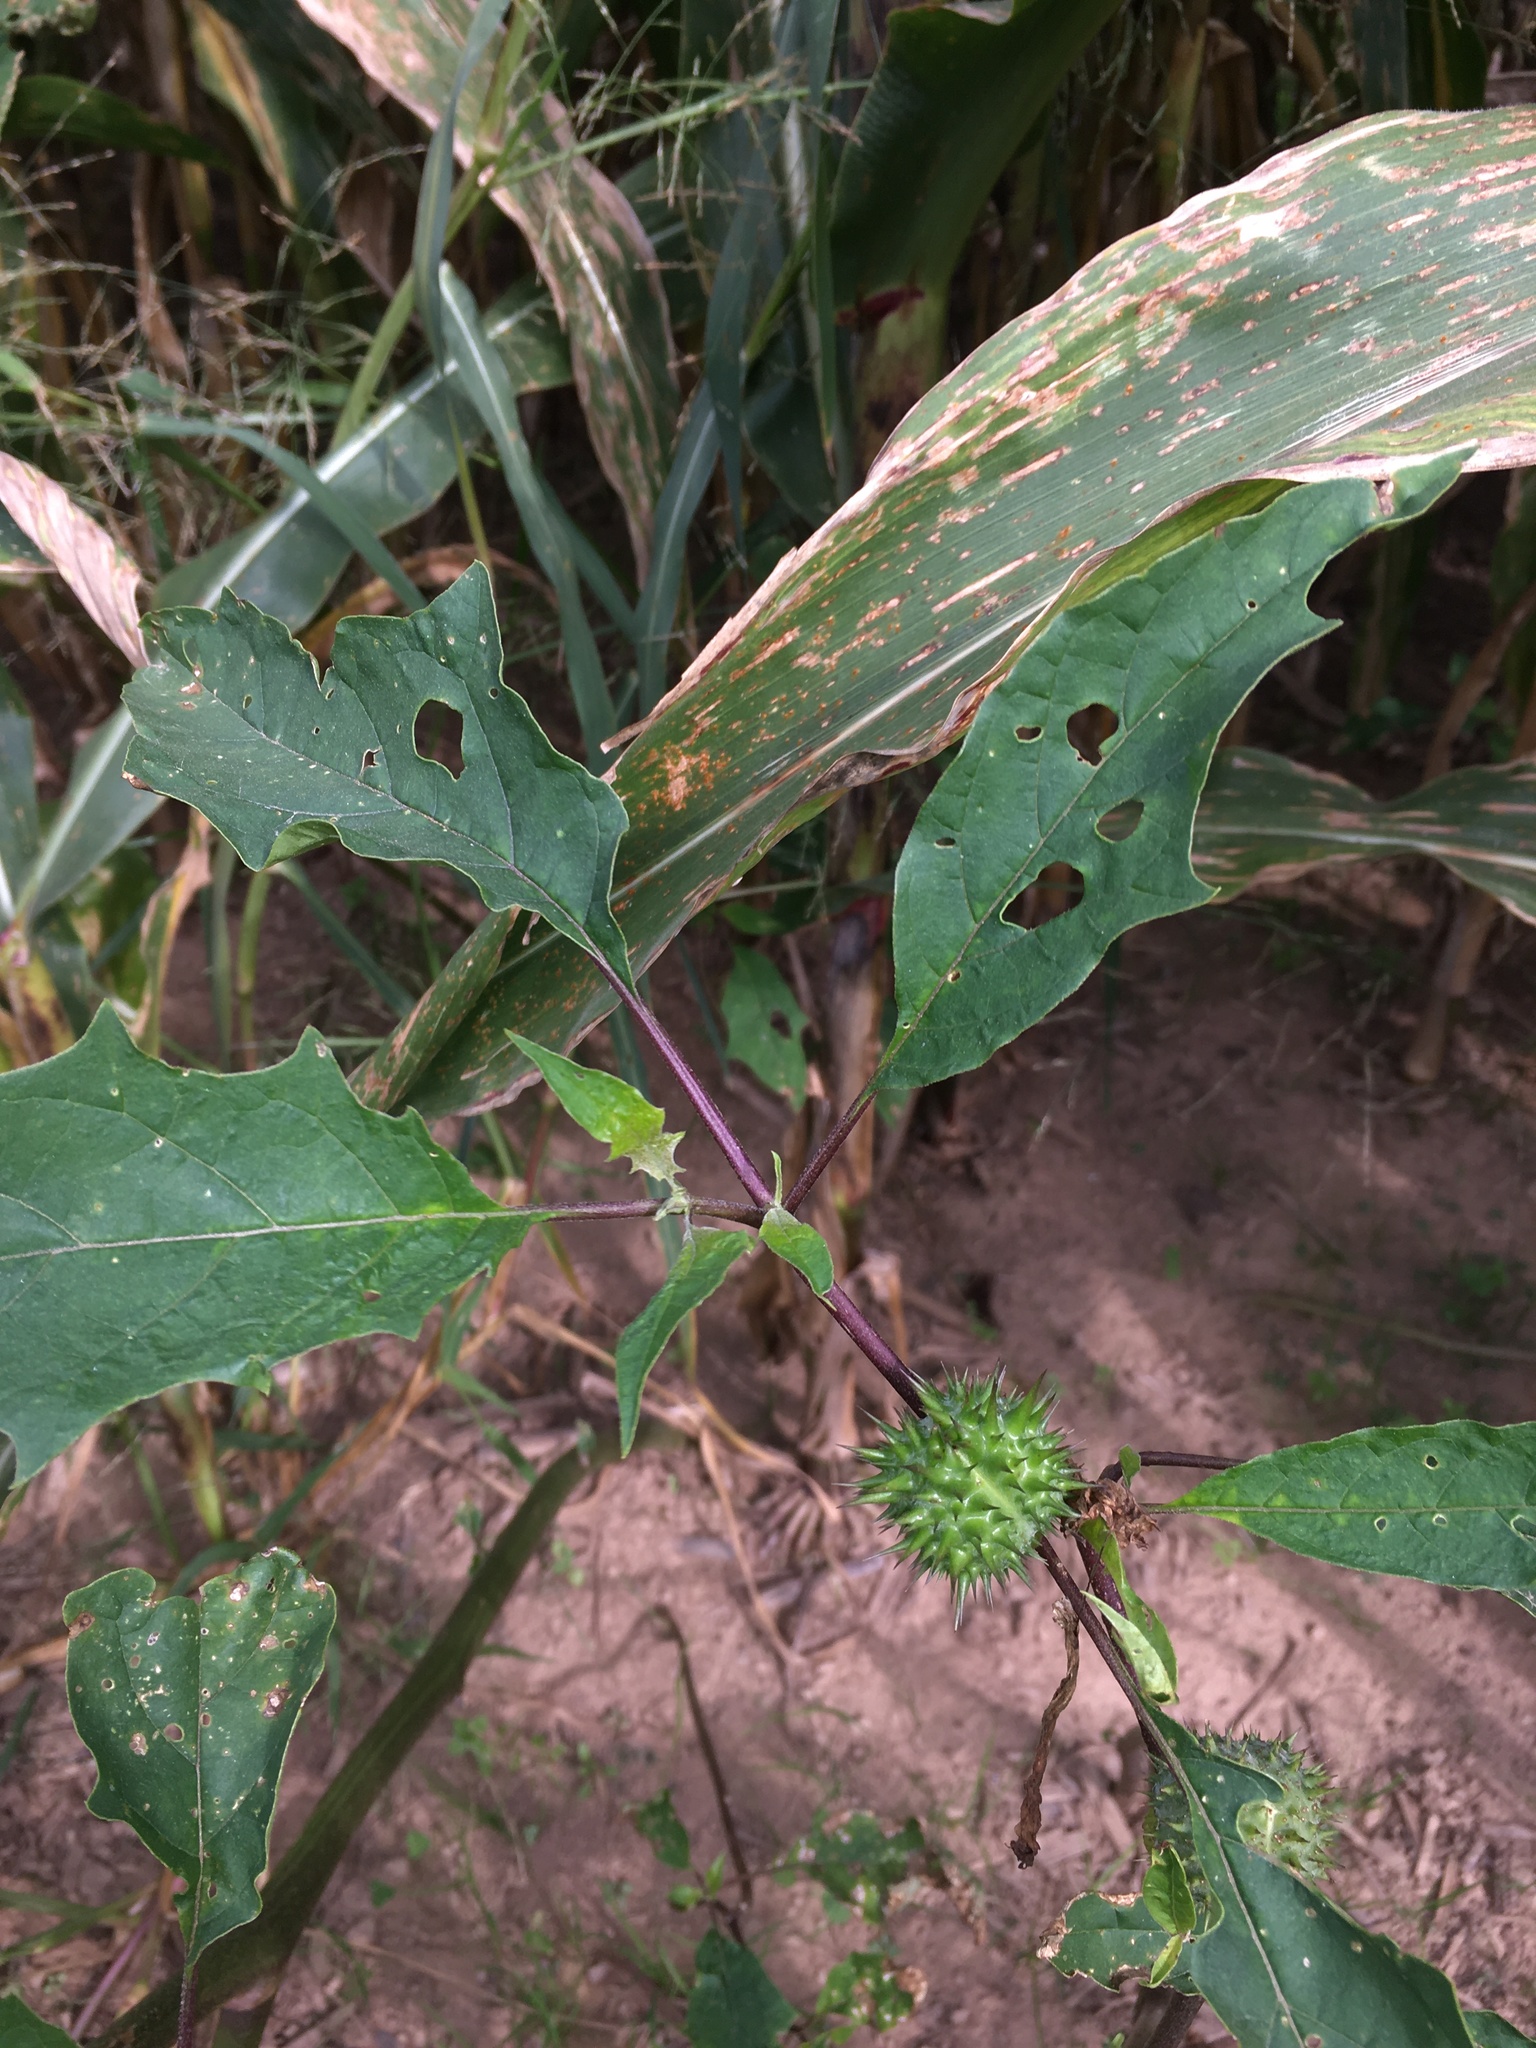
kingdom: Plantae
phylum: Tracheophyta
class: Magnoliopsida
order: Solanales
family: Solanaceae
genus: Datura
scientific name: Datura stramonium
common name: Thorn-apple
